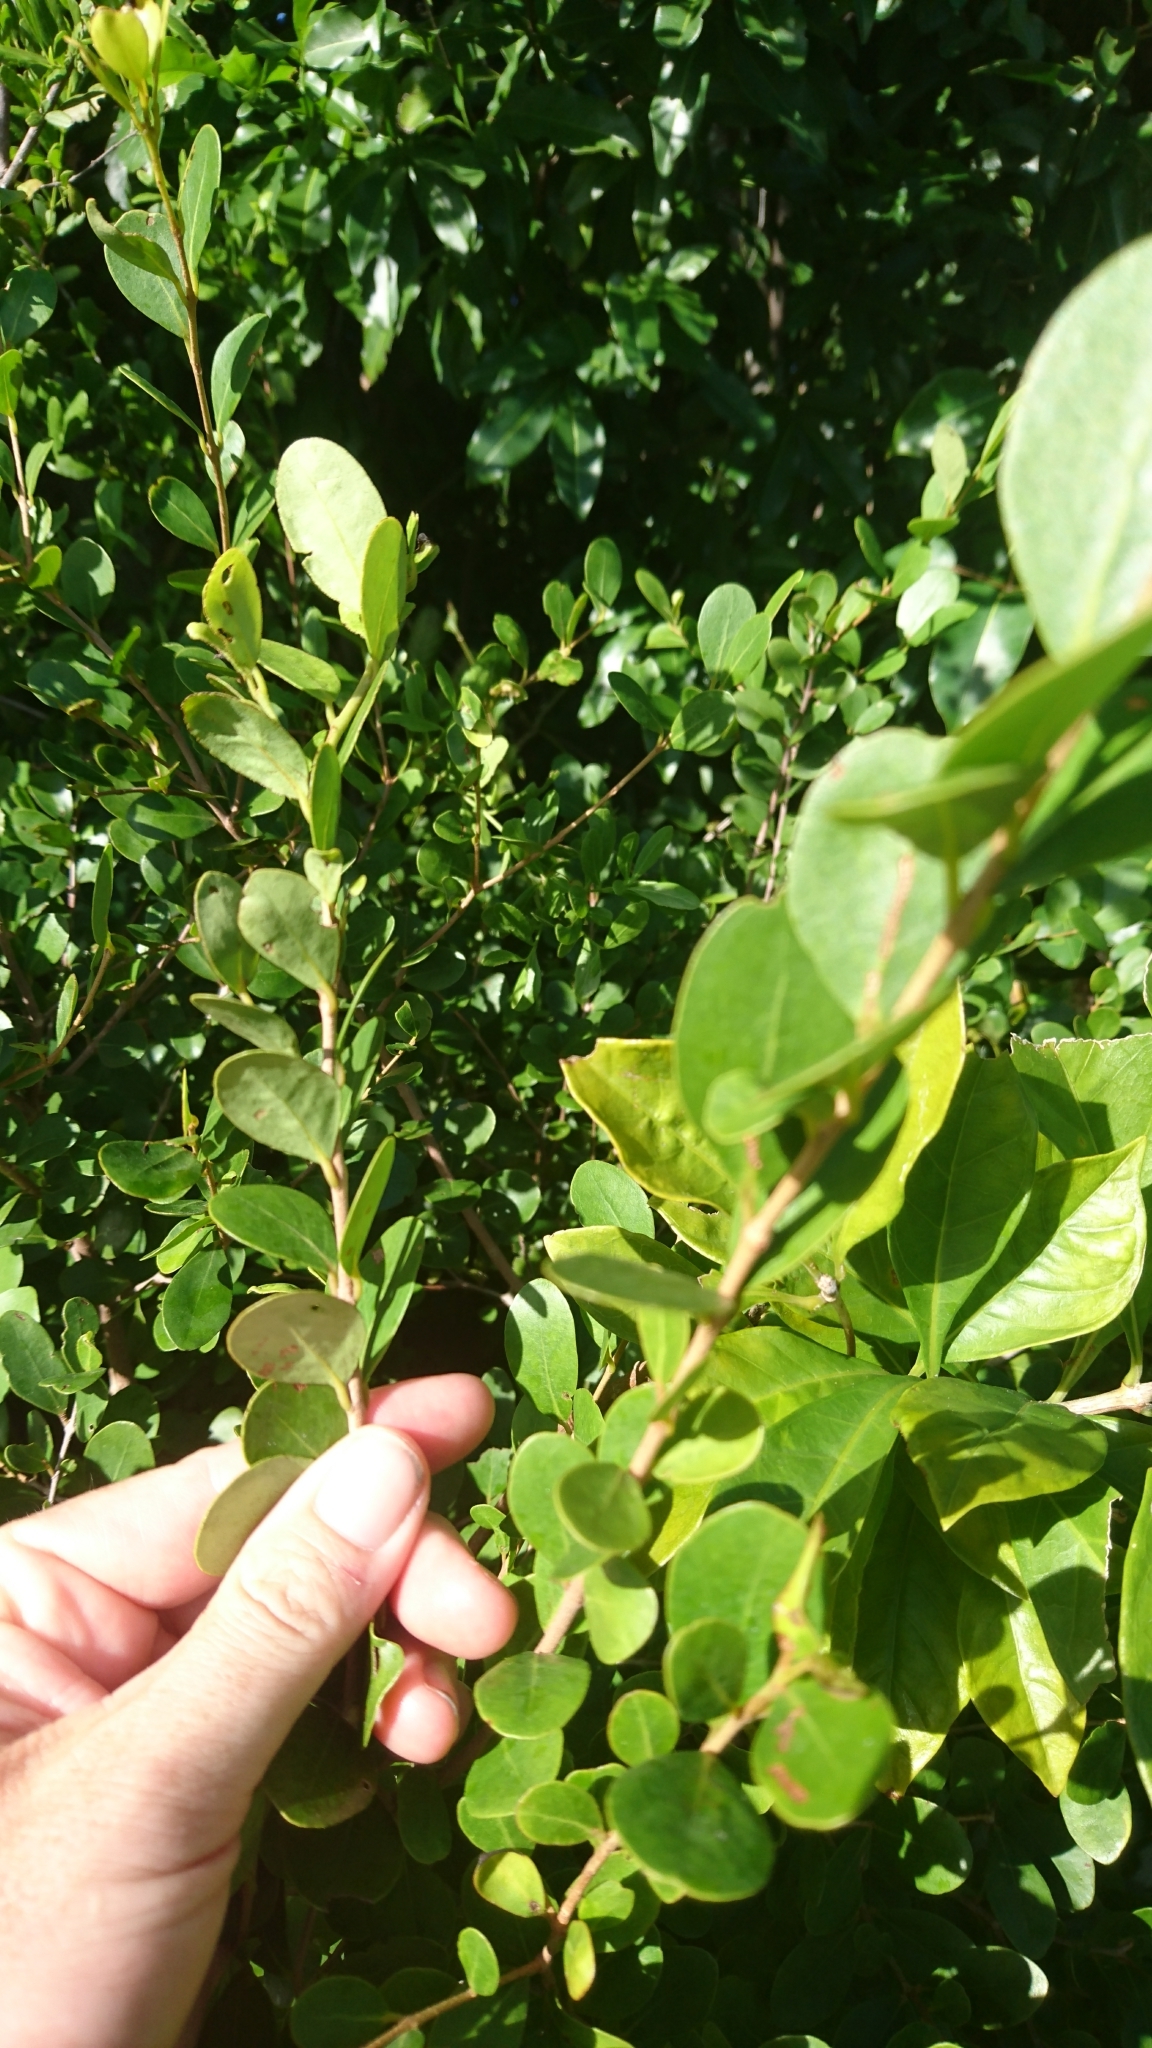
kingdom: Plantae
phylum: Tracheophyta
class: Magnoliopsida
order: Malpighiales
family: Chrysobalanaceae
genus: Chrysobalanus
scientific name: Chrysobalanus icaco
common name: Coco plum
